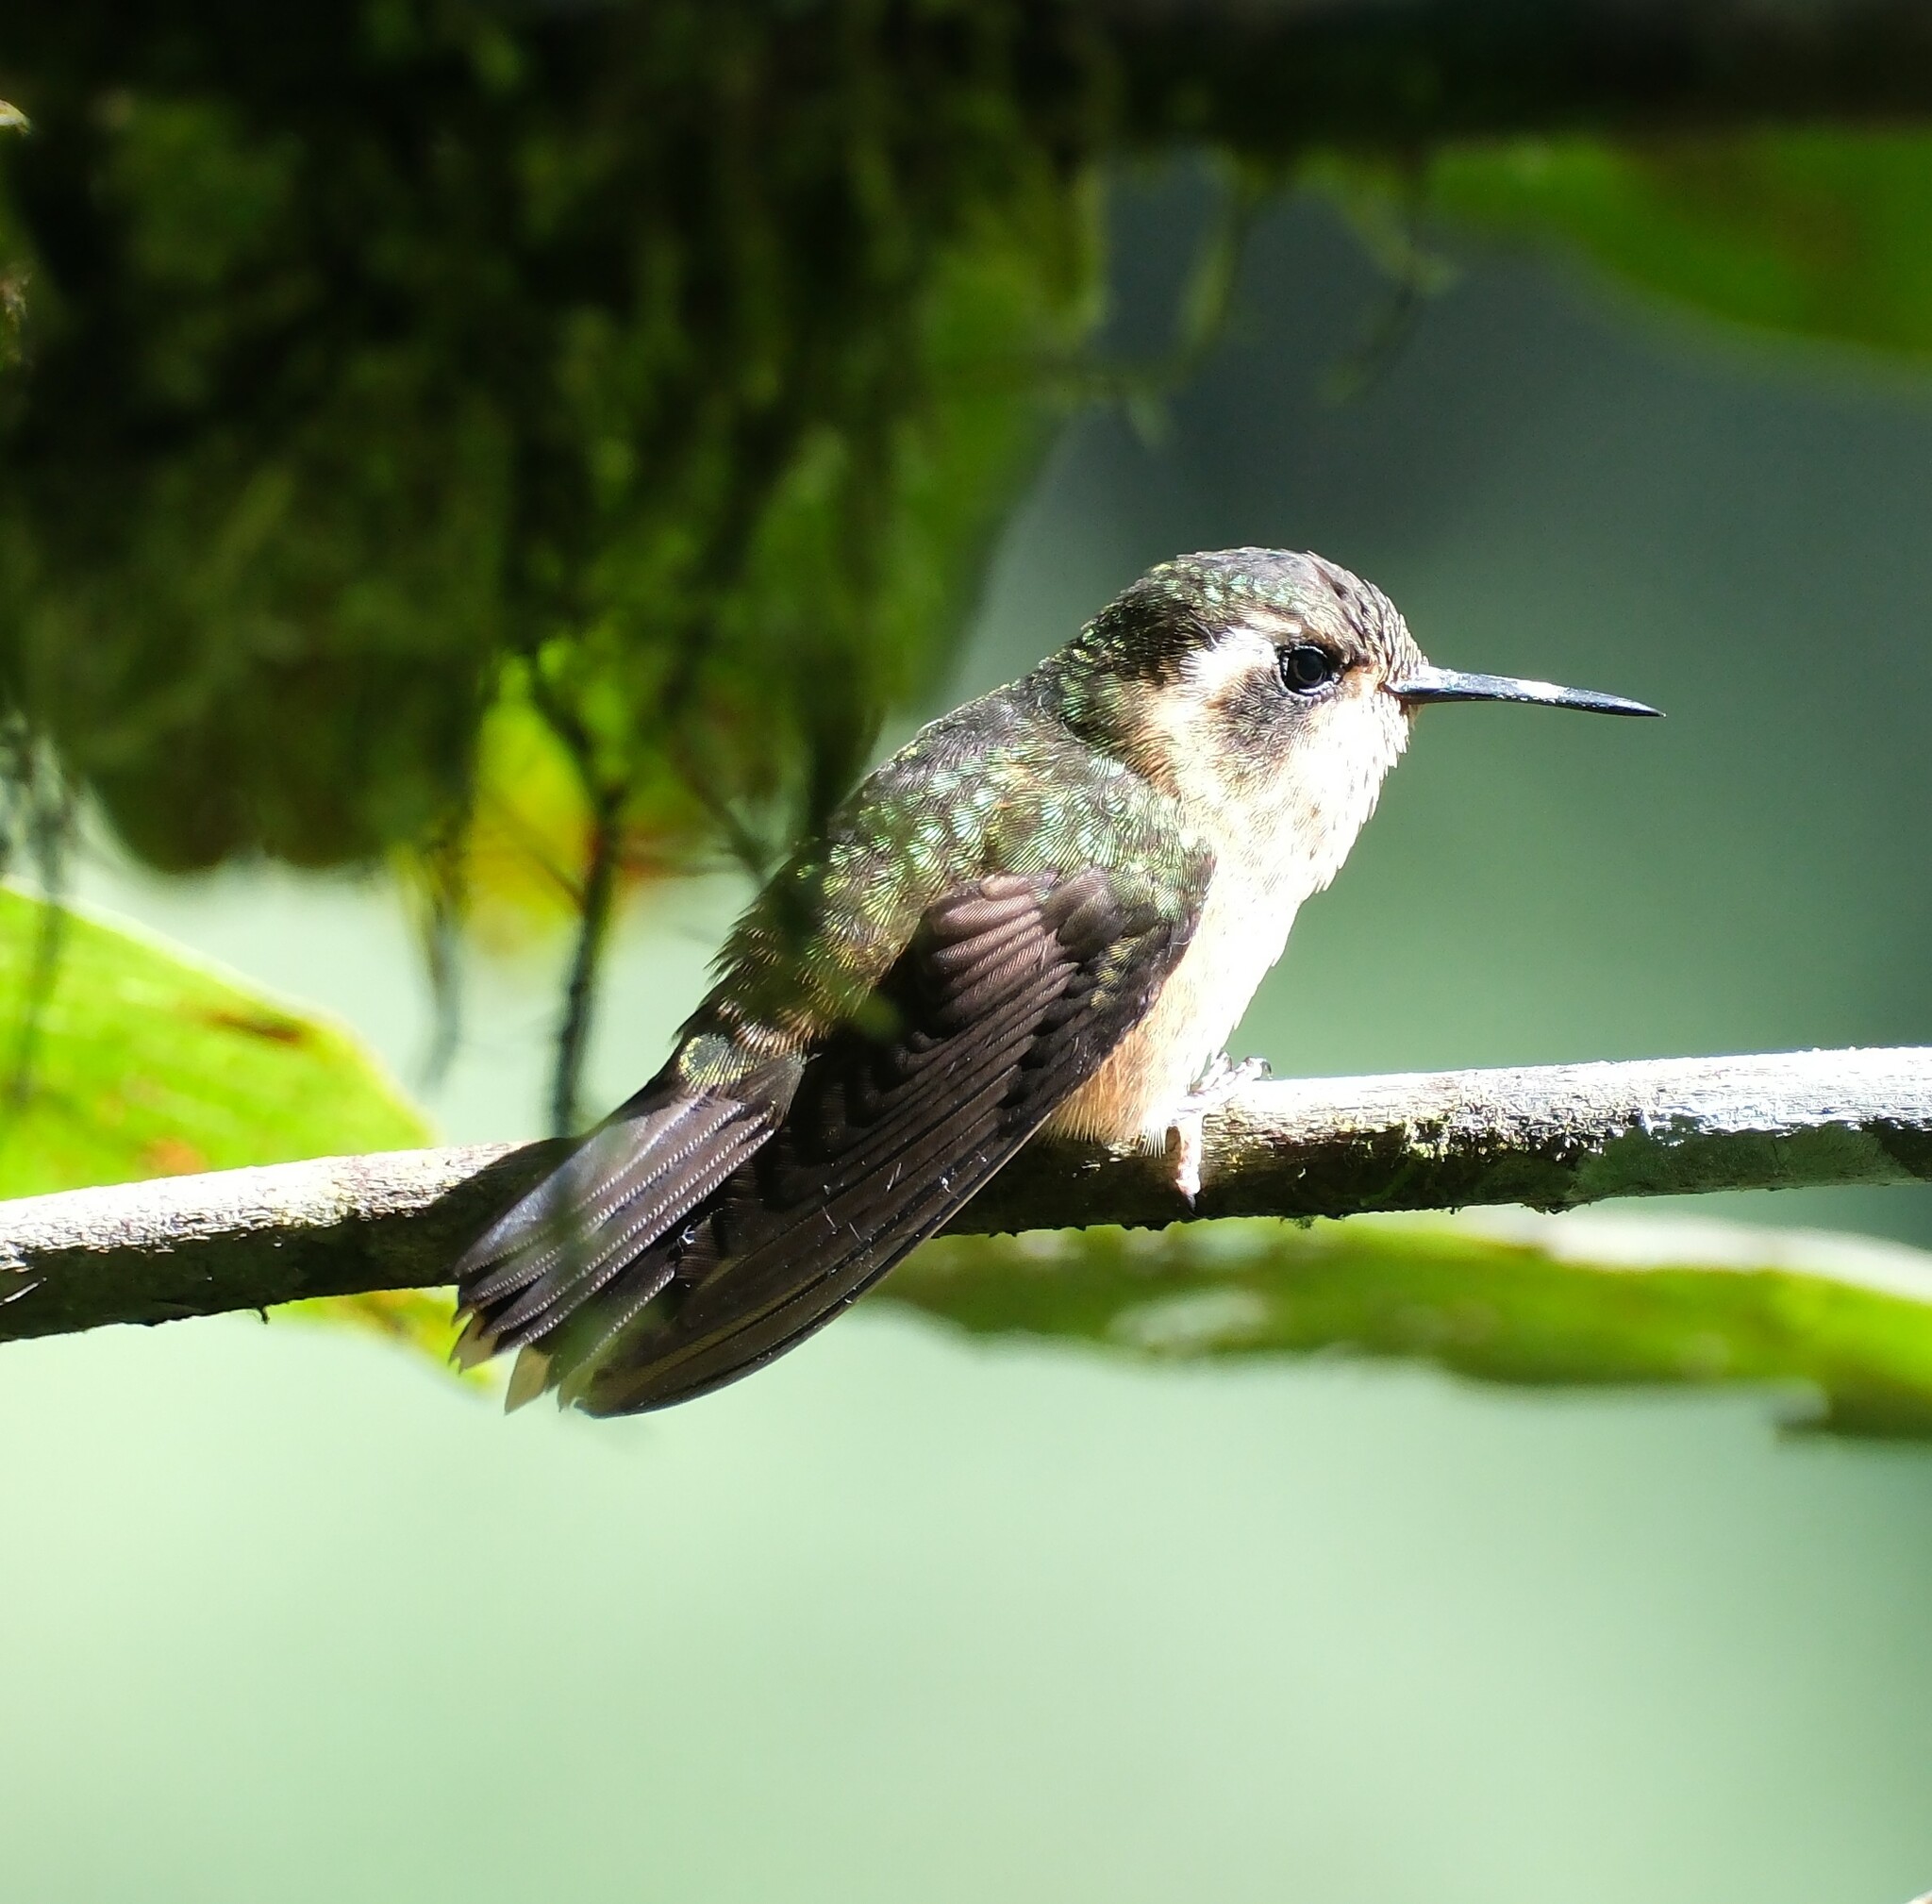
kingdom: Animalia
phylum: Chordata
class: Aves
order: Apodiformes
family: Trochilidae
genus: Adelomyia
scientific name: Adelomyia melanogenys
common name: Speckled hummingbird
